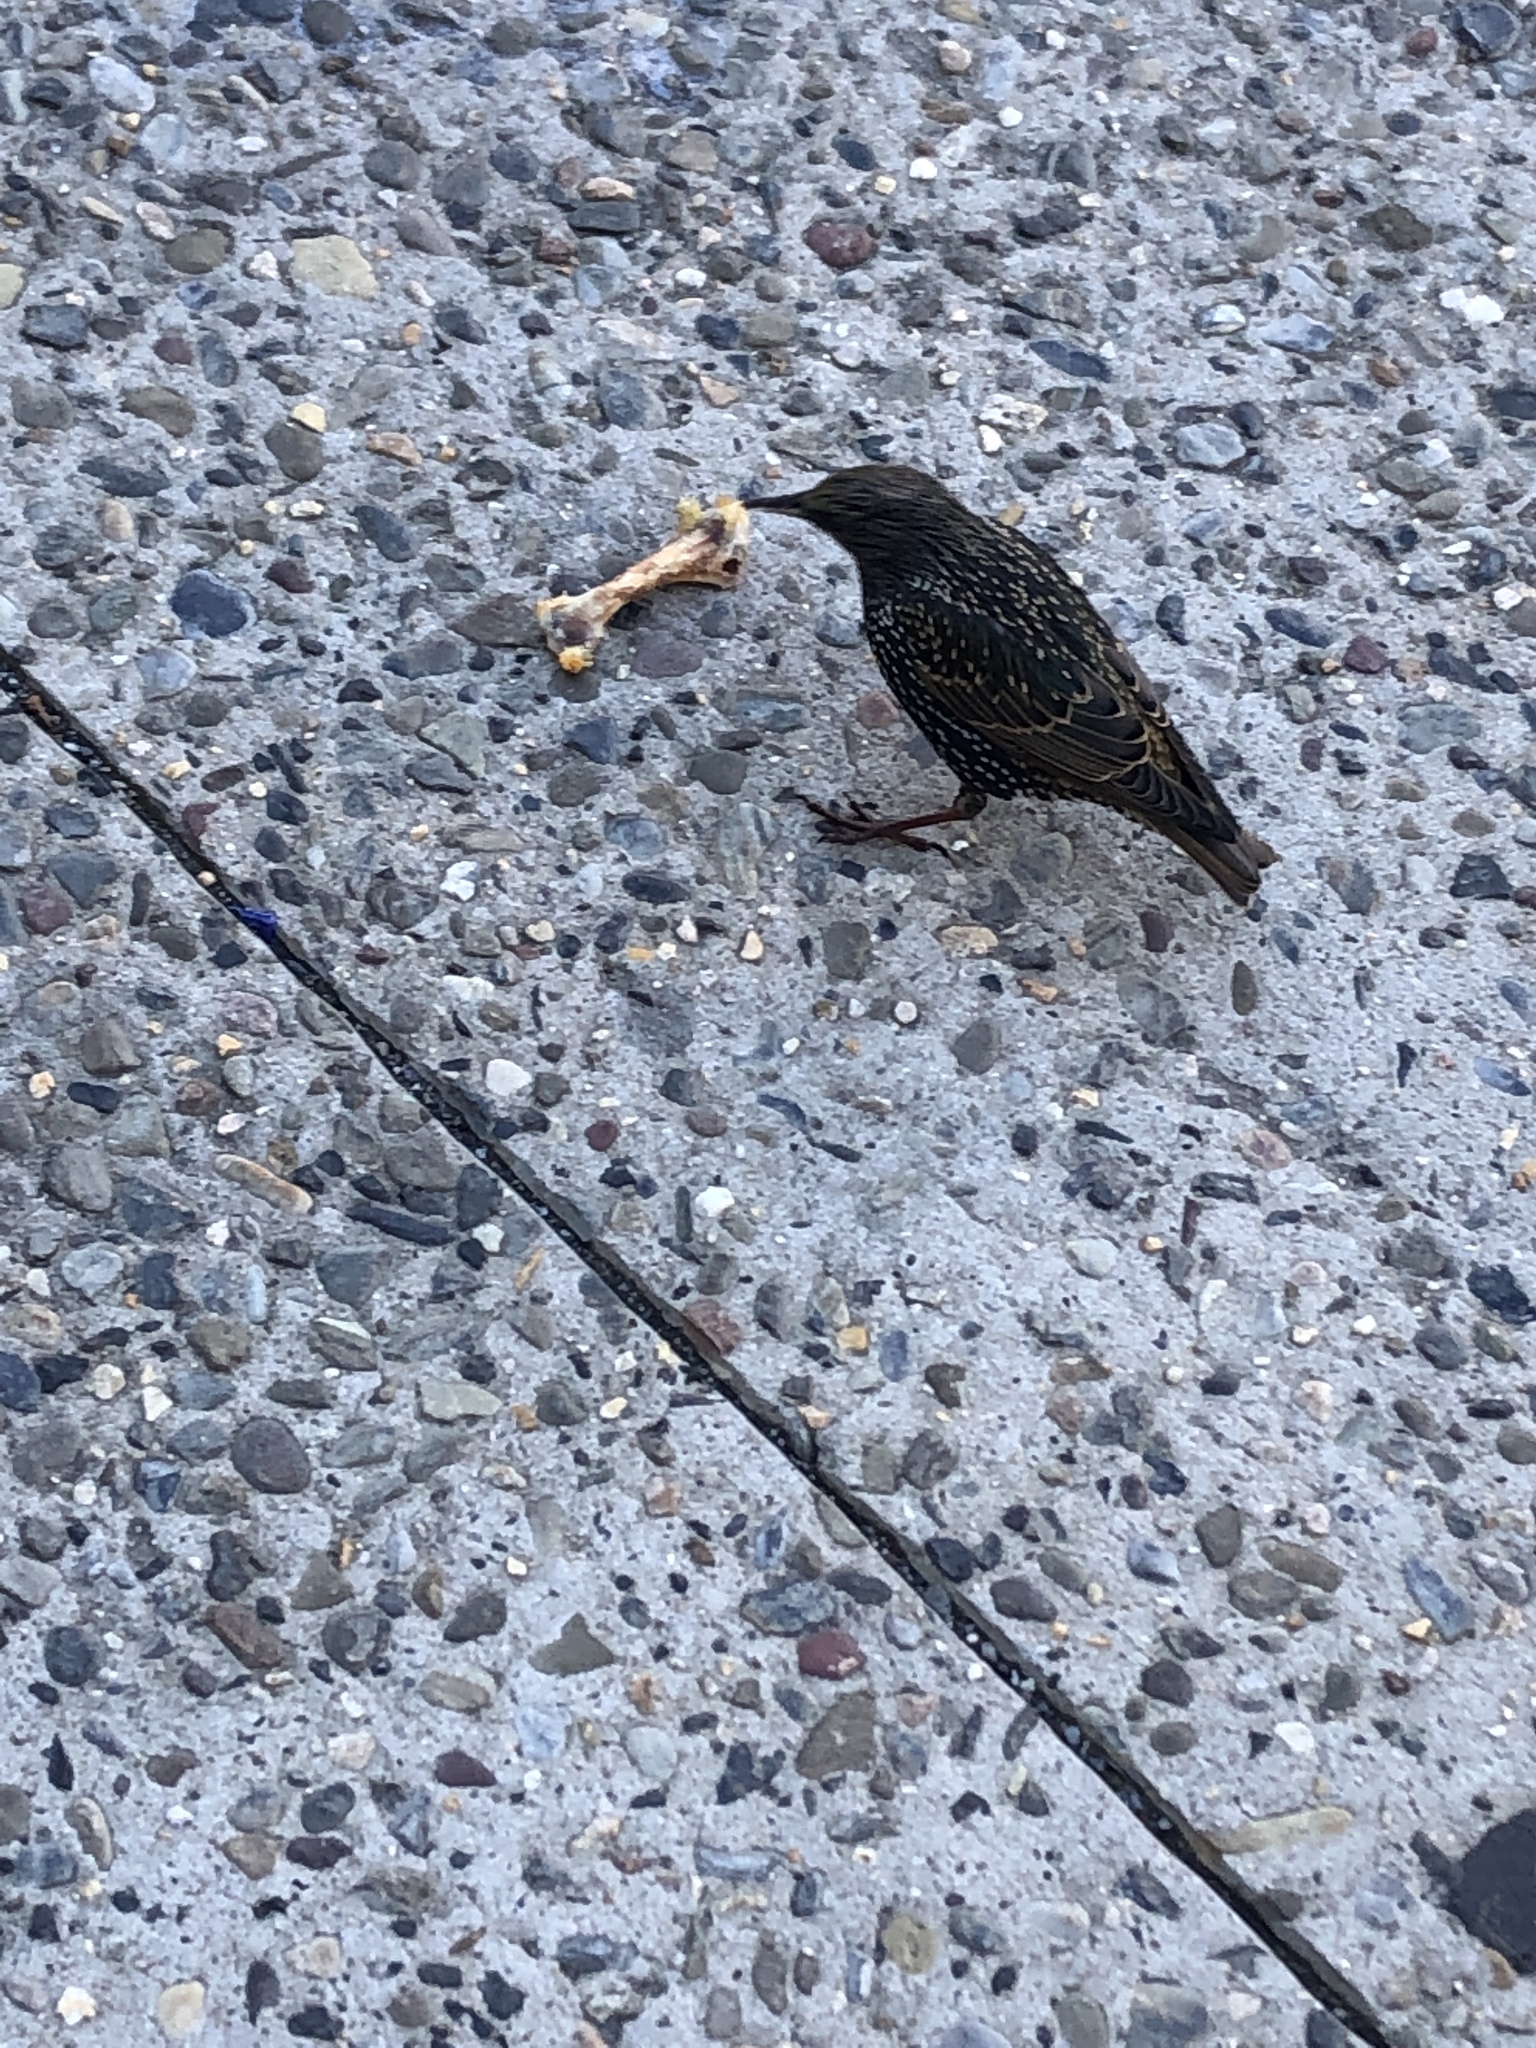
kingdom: Animalia
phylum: Chordata
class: Aves
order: Passeriformes
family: Sturnidae
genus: Sturnus
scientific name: Sturnus vulgaris
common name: Common starling
